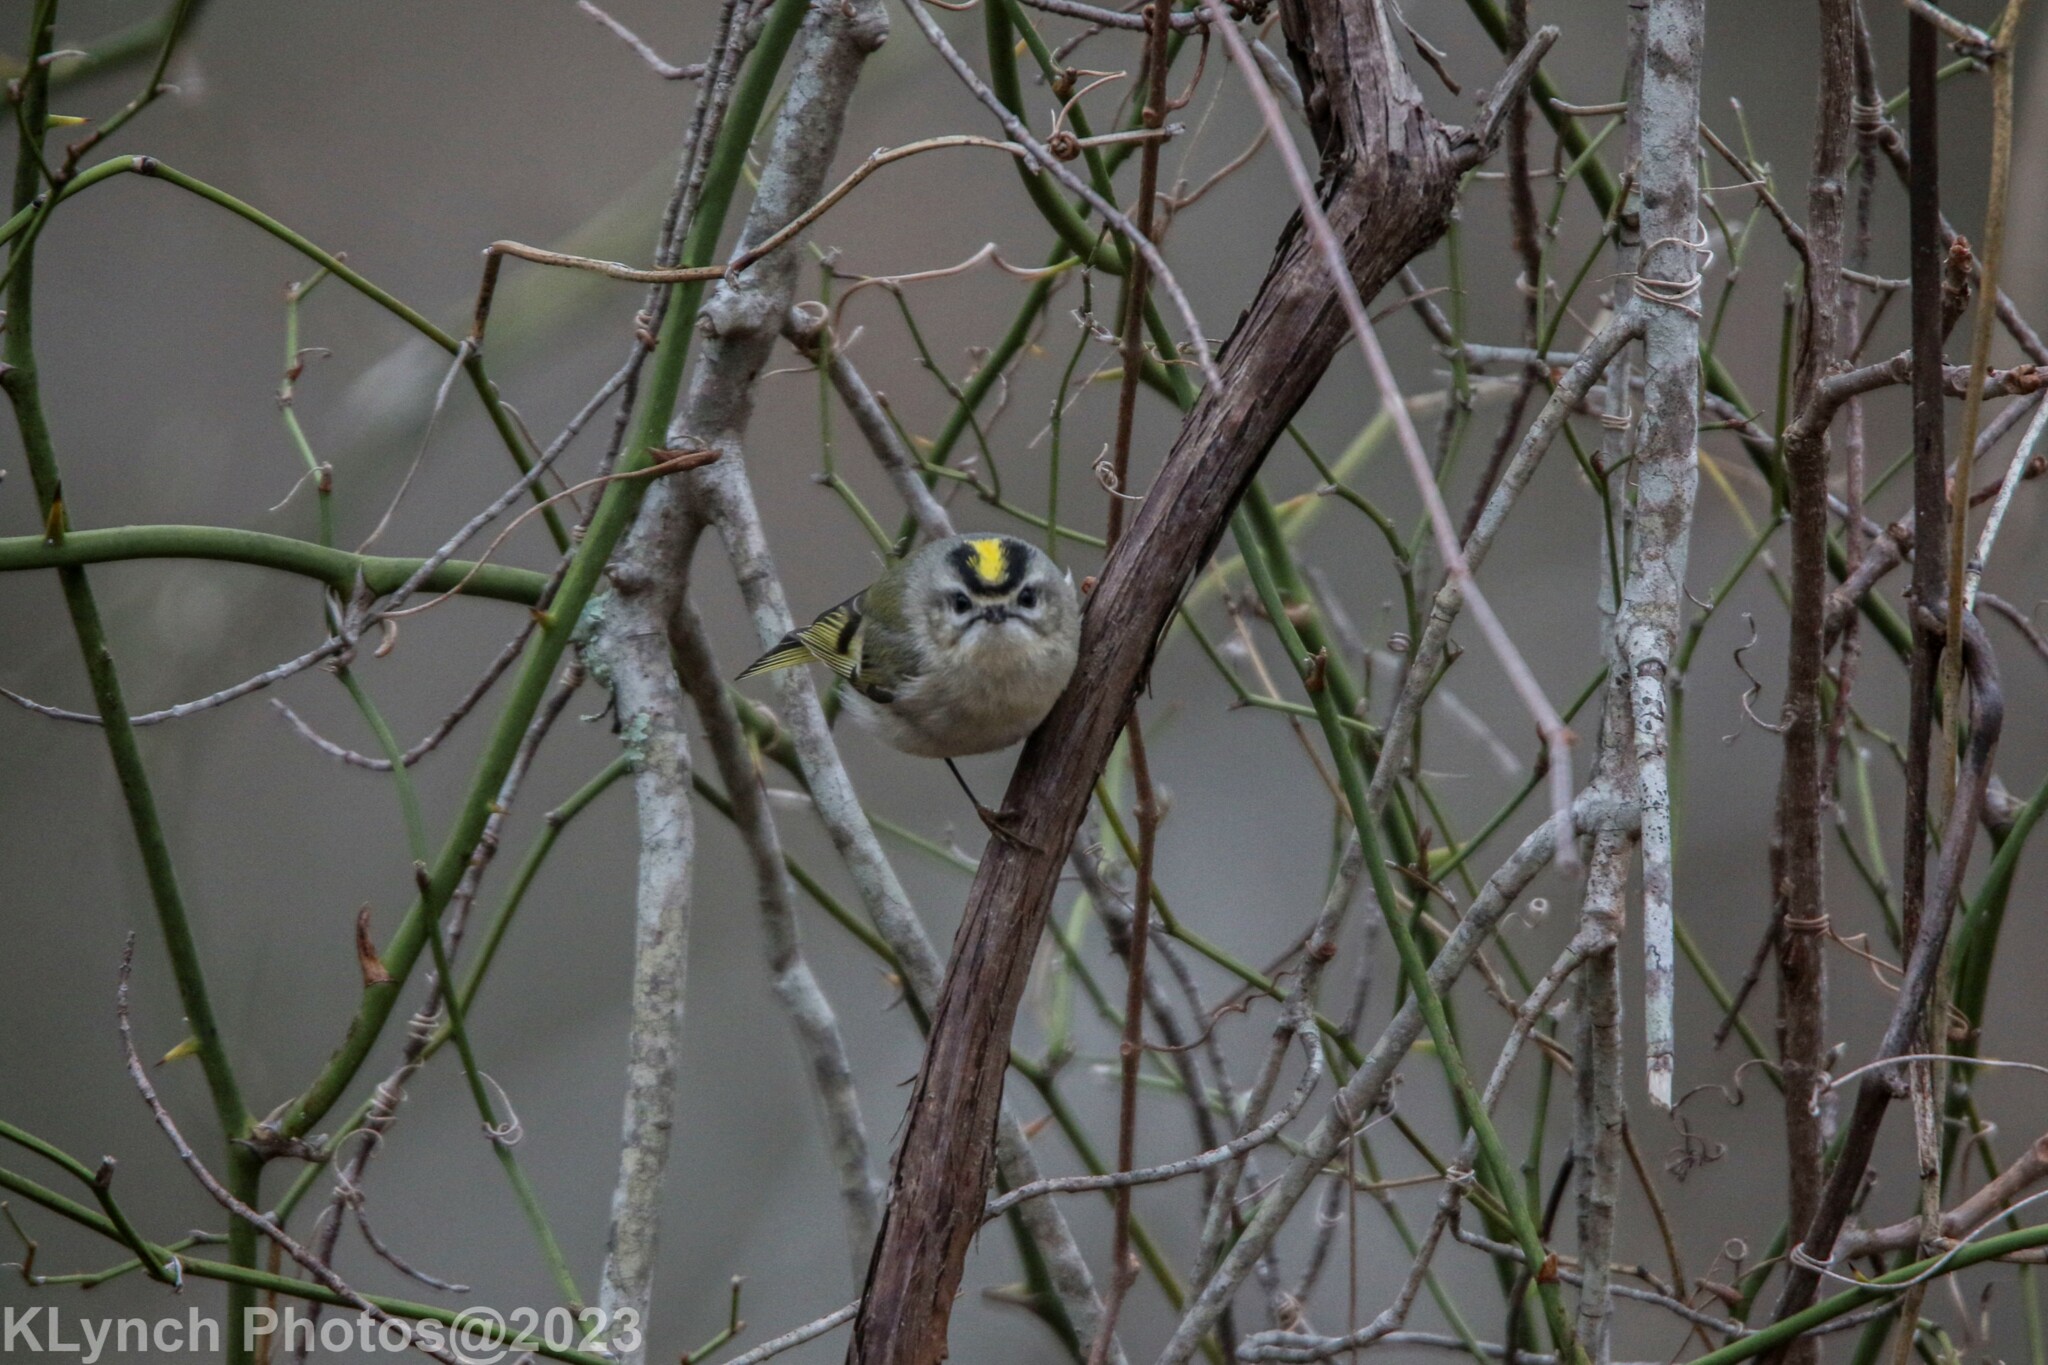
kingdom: Animalia
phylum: Chordata
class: Aves
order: Passeriformes
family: Regulidae
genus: Regulus
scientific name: Regulus satrapa
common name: Golden-crowned kinglet
